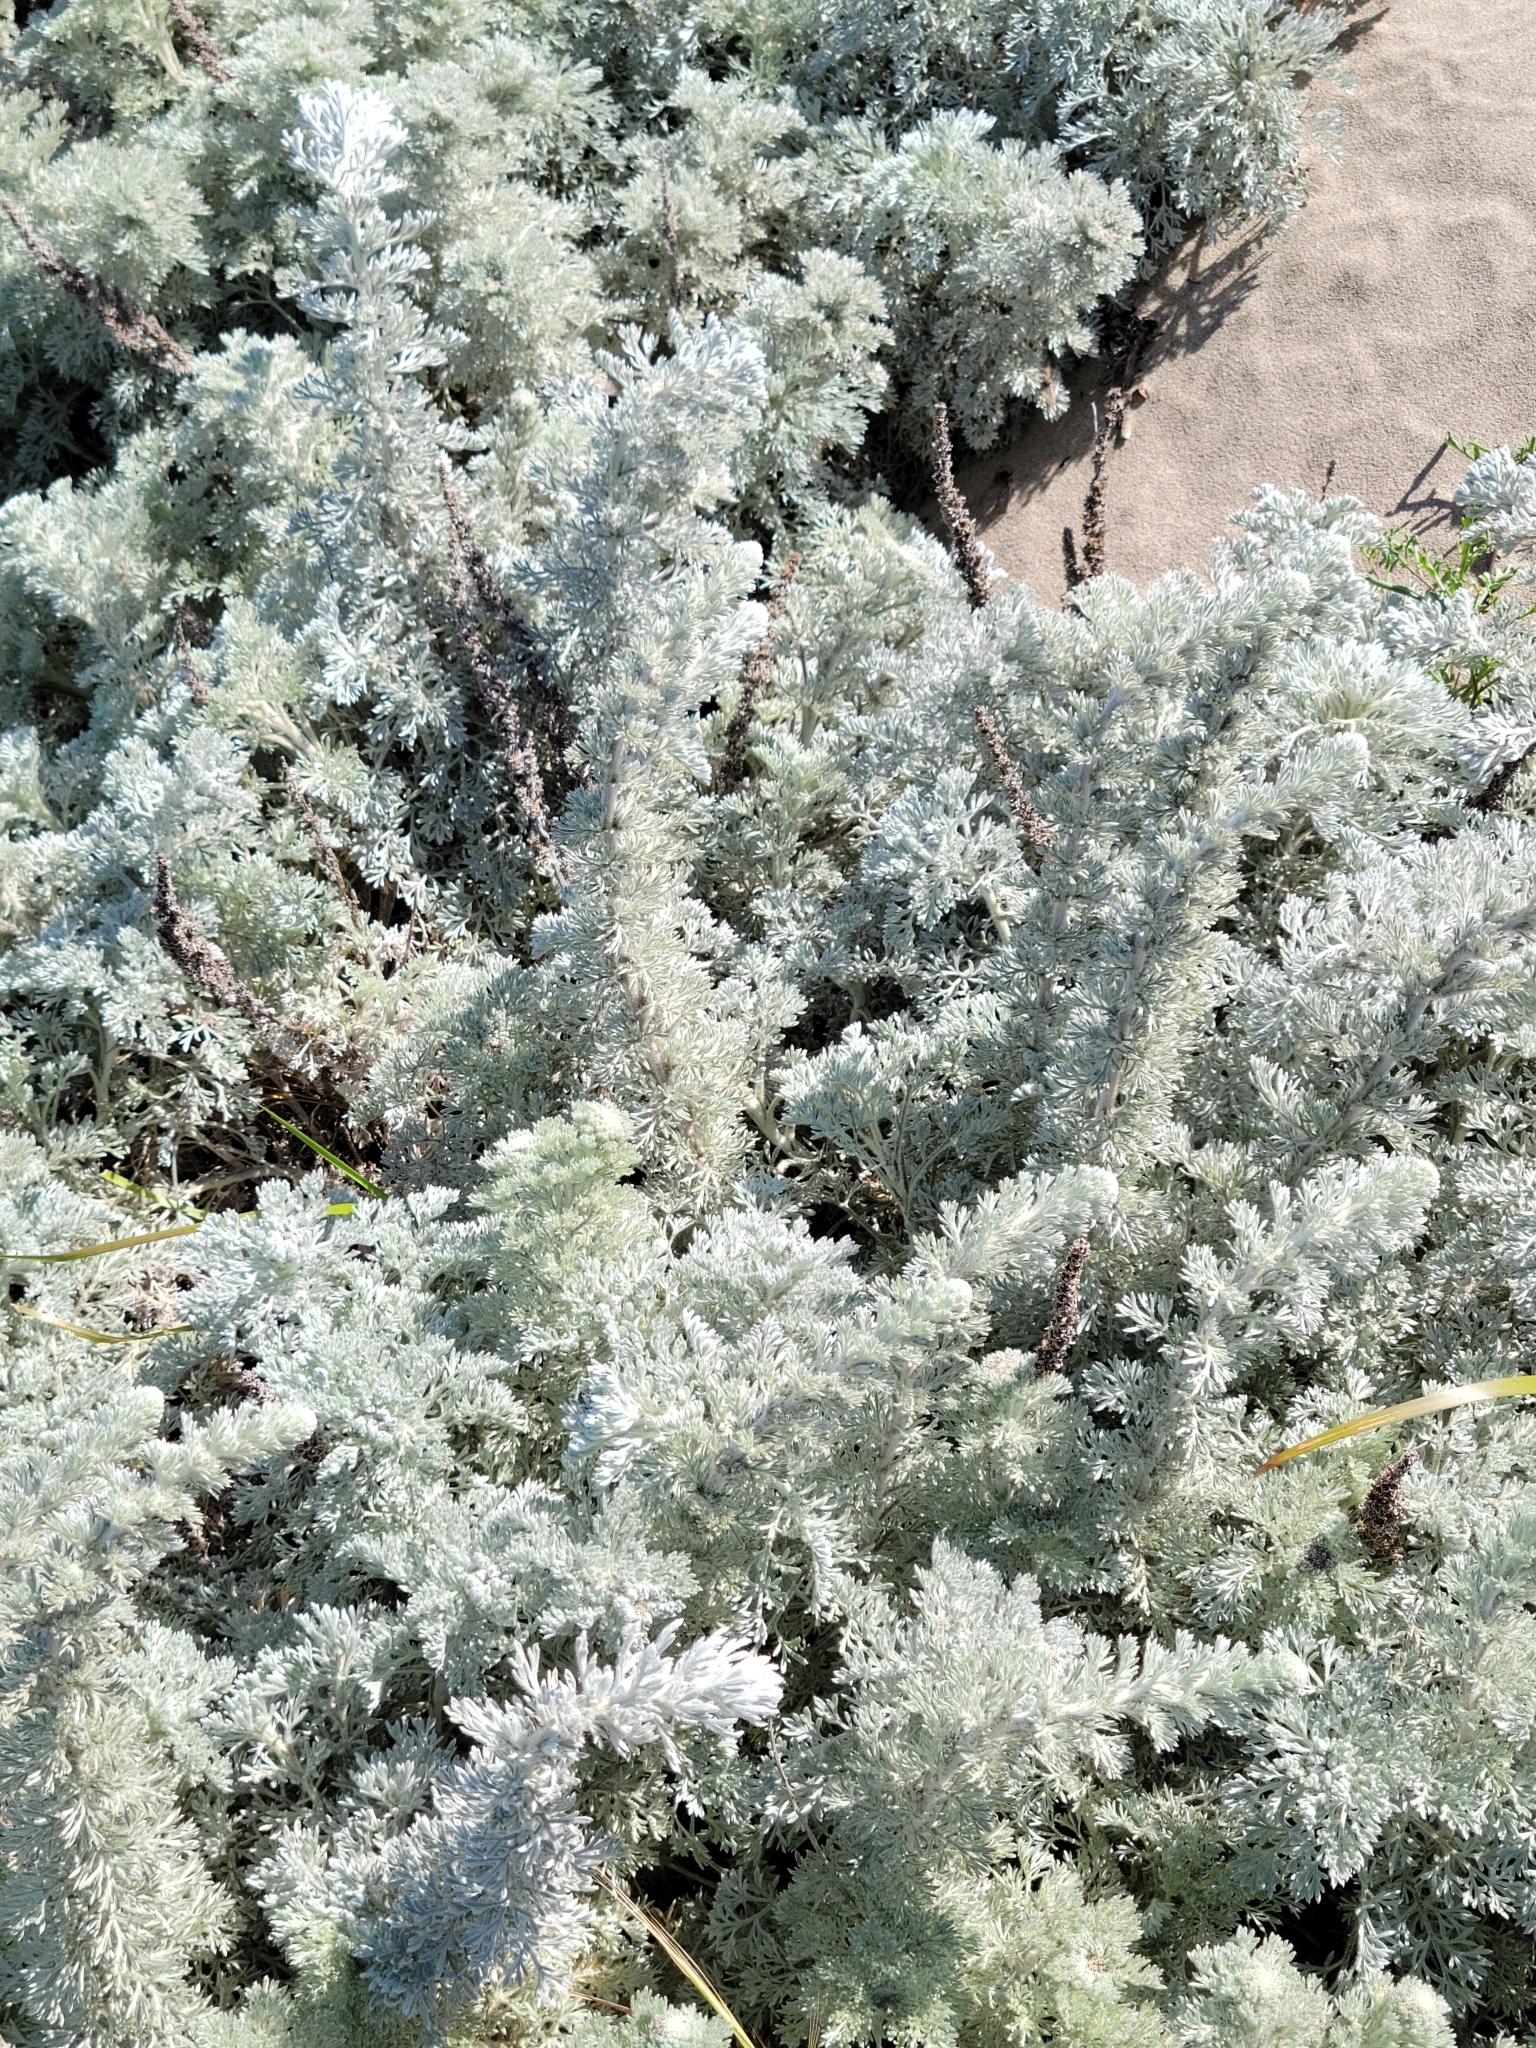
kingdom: Plantae
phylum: Tracheophyta
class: Magnoliopsida
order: Asterales
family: Asteraceae
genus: Artemisia
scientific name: Artemisia pycnocephala
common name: Coastal sagewort
